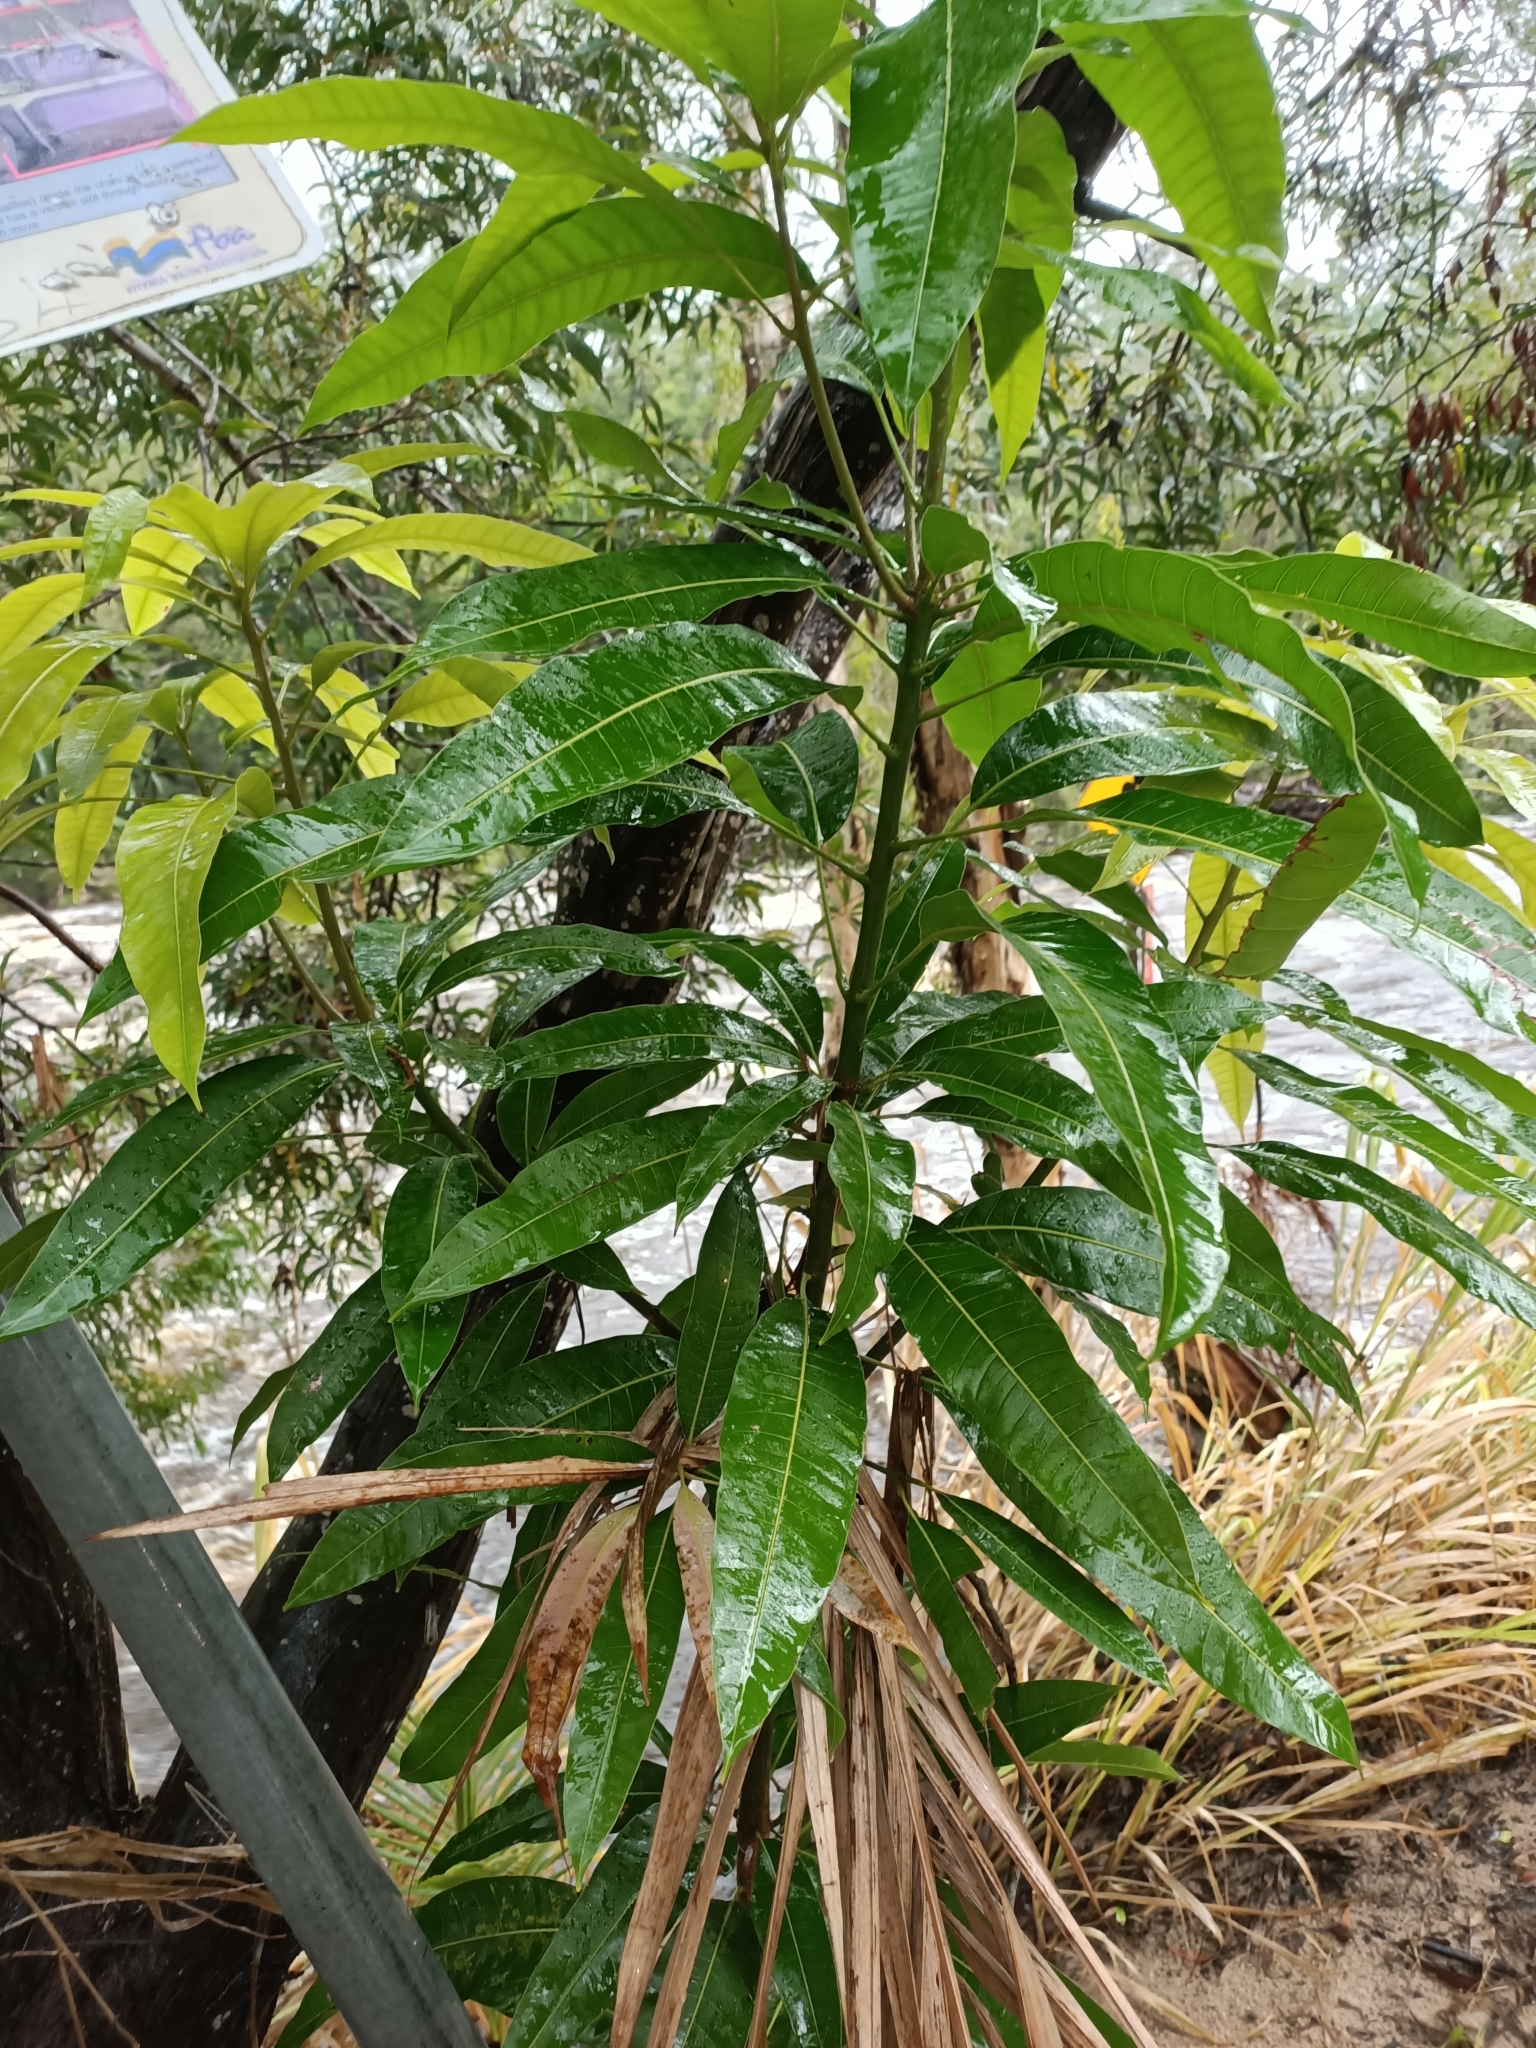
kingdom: Plantae
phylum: Tracheophyta
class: Magnoliopsida
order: Sapindales
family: Anacardiaceae
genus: Mangifera
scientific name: Mangifera indica
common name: Mango
